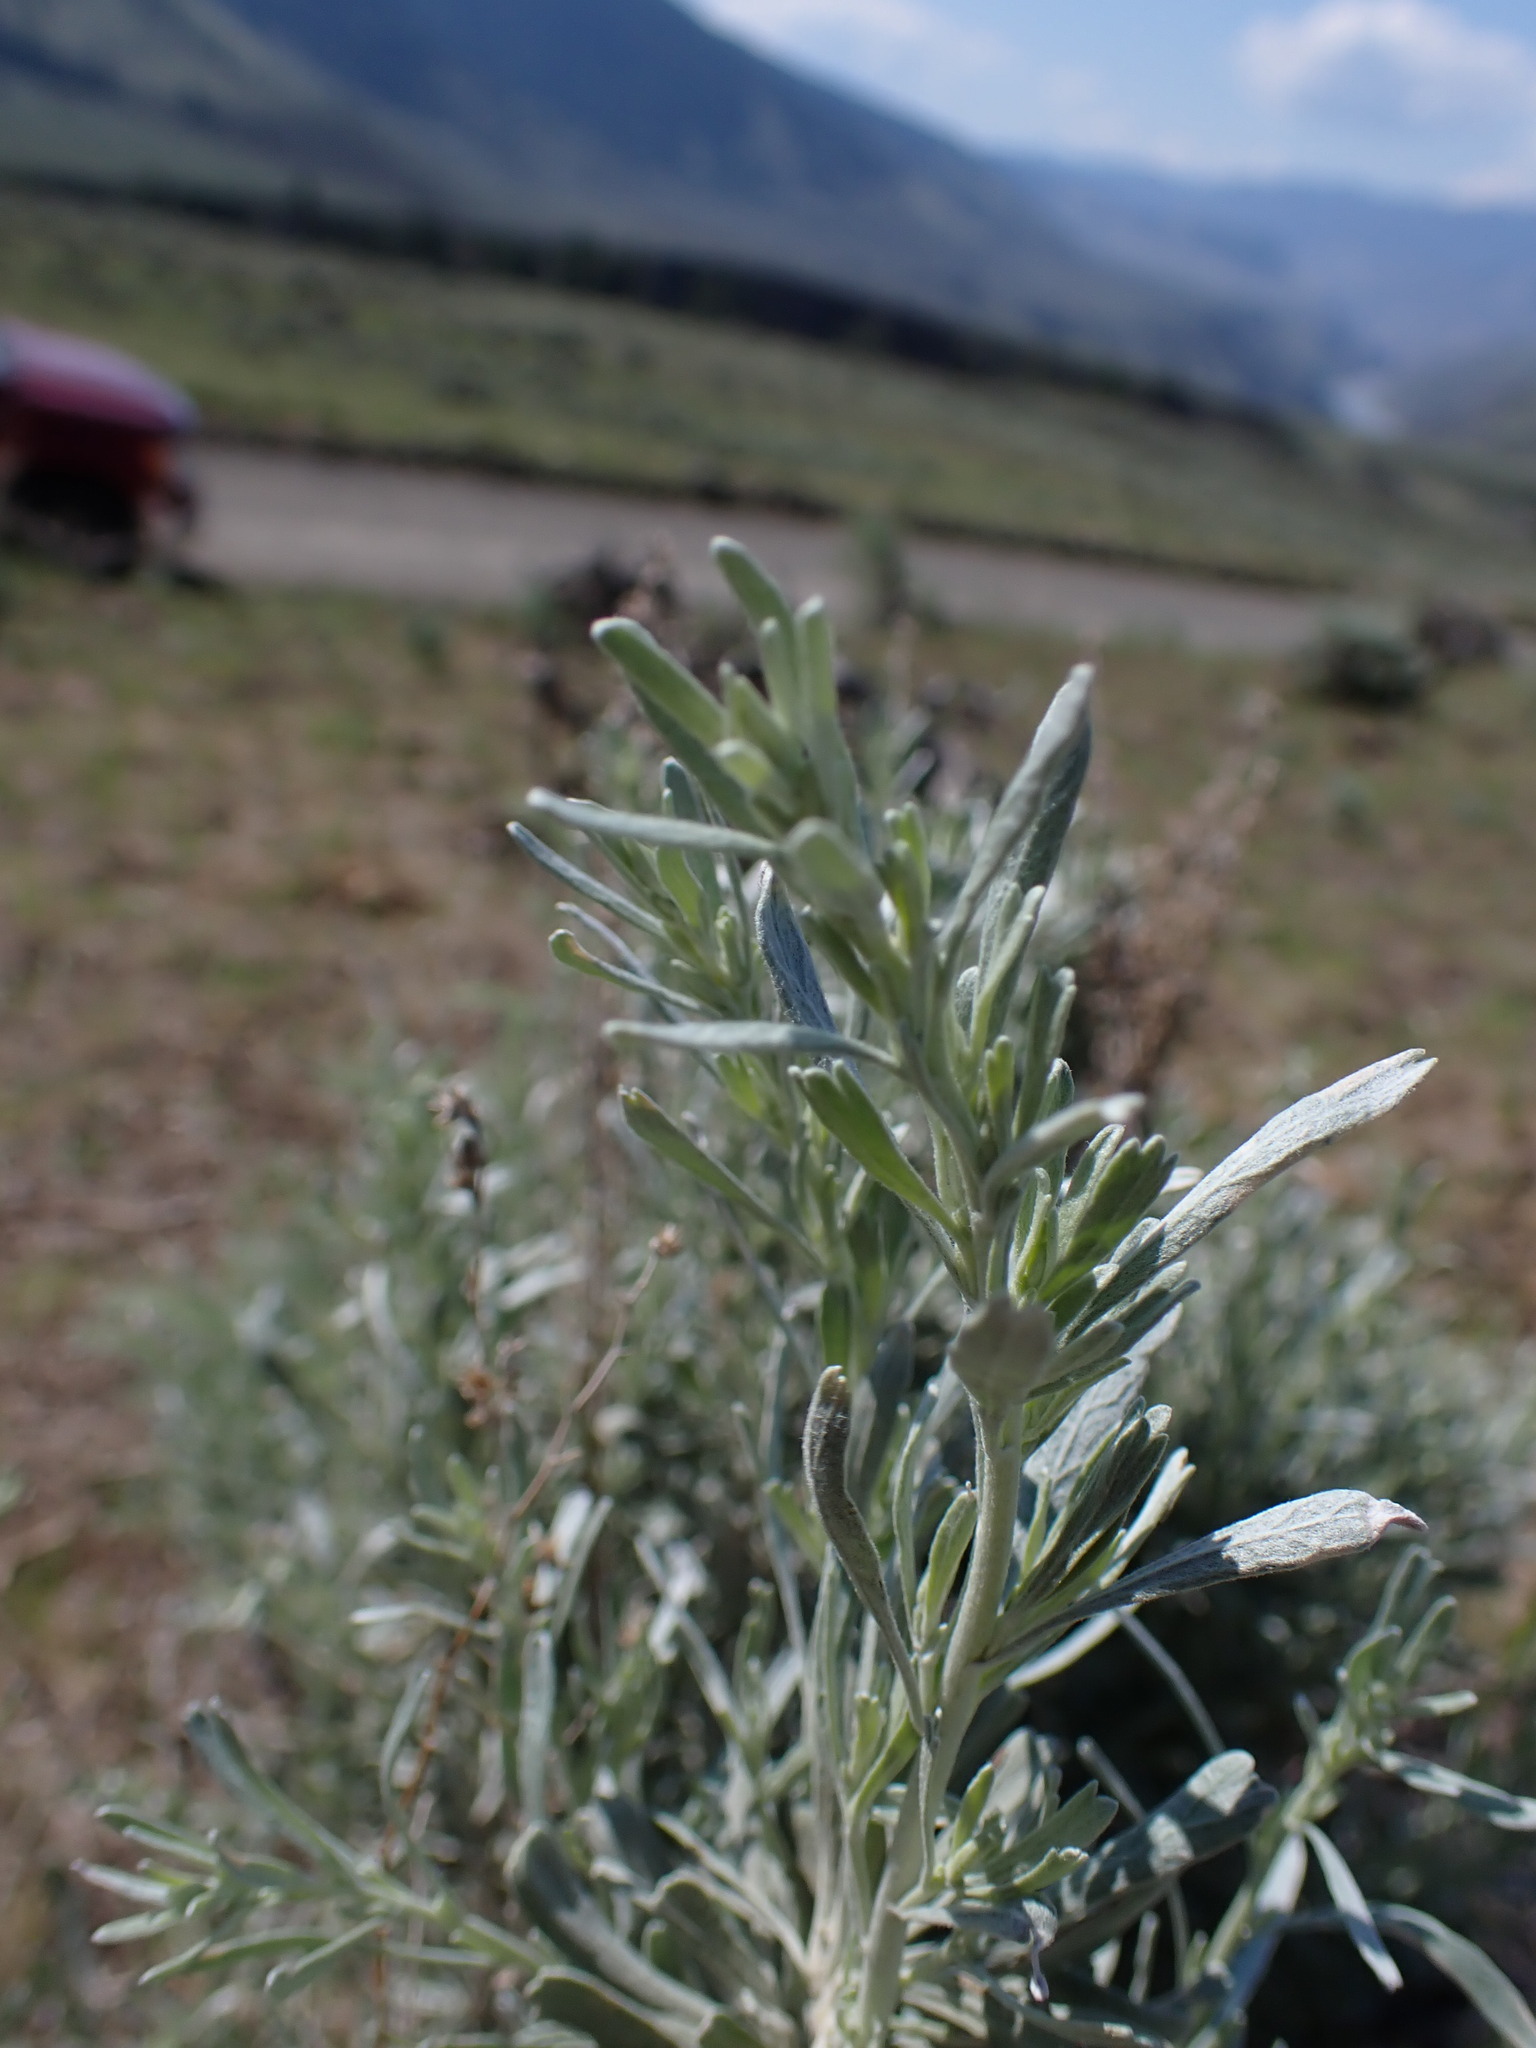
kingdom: Plantae
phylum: Tracheophyta
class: Magnoliopsida
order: Asterales
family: Asteraceae
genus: Artemisia
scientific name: Artemisia tridentata
